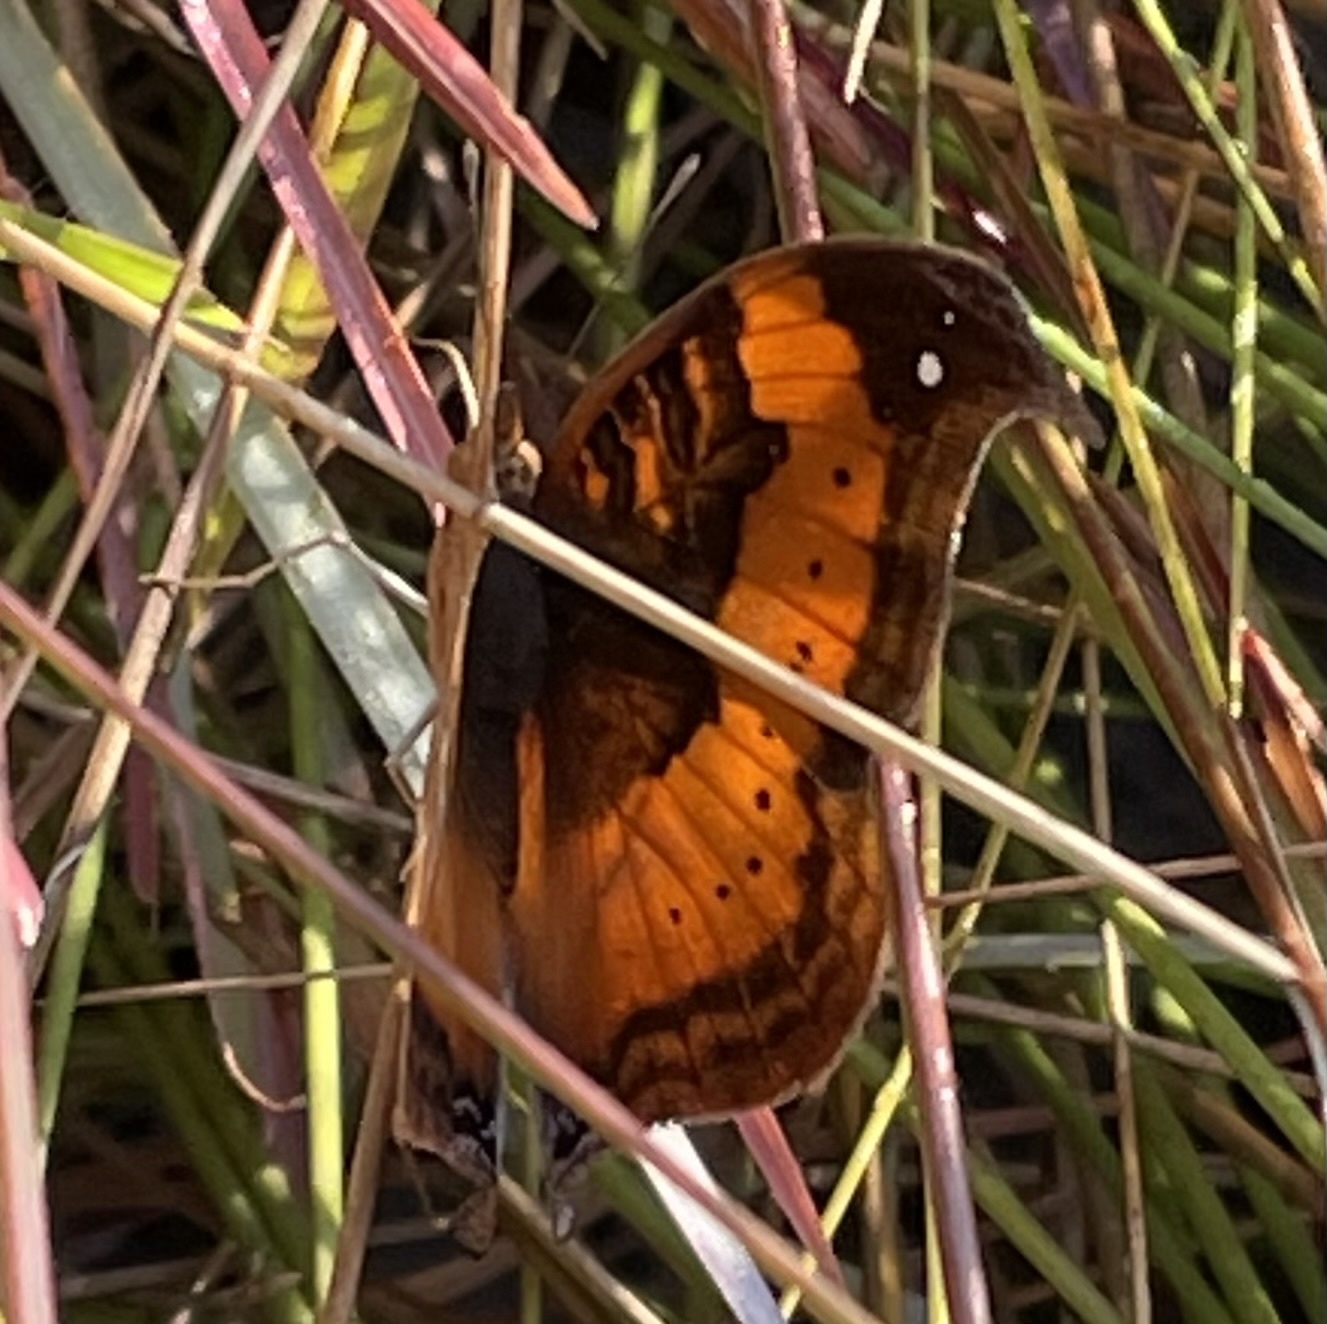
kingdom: Animalia
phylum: Arthropoda
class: Insecta
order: Lepidoptera
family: Nymphalidae
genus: Junonia
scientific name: Junonia tugela
